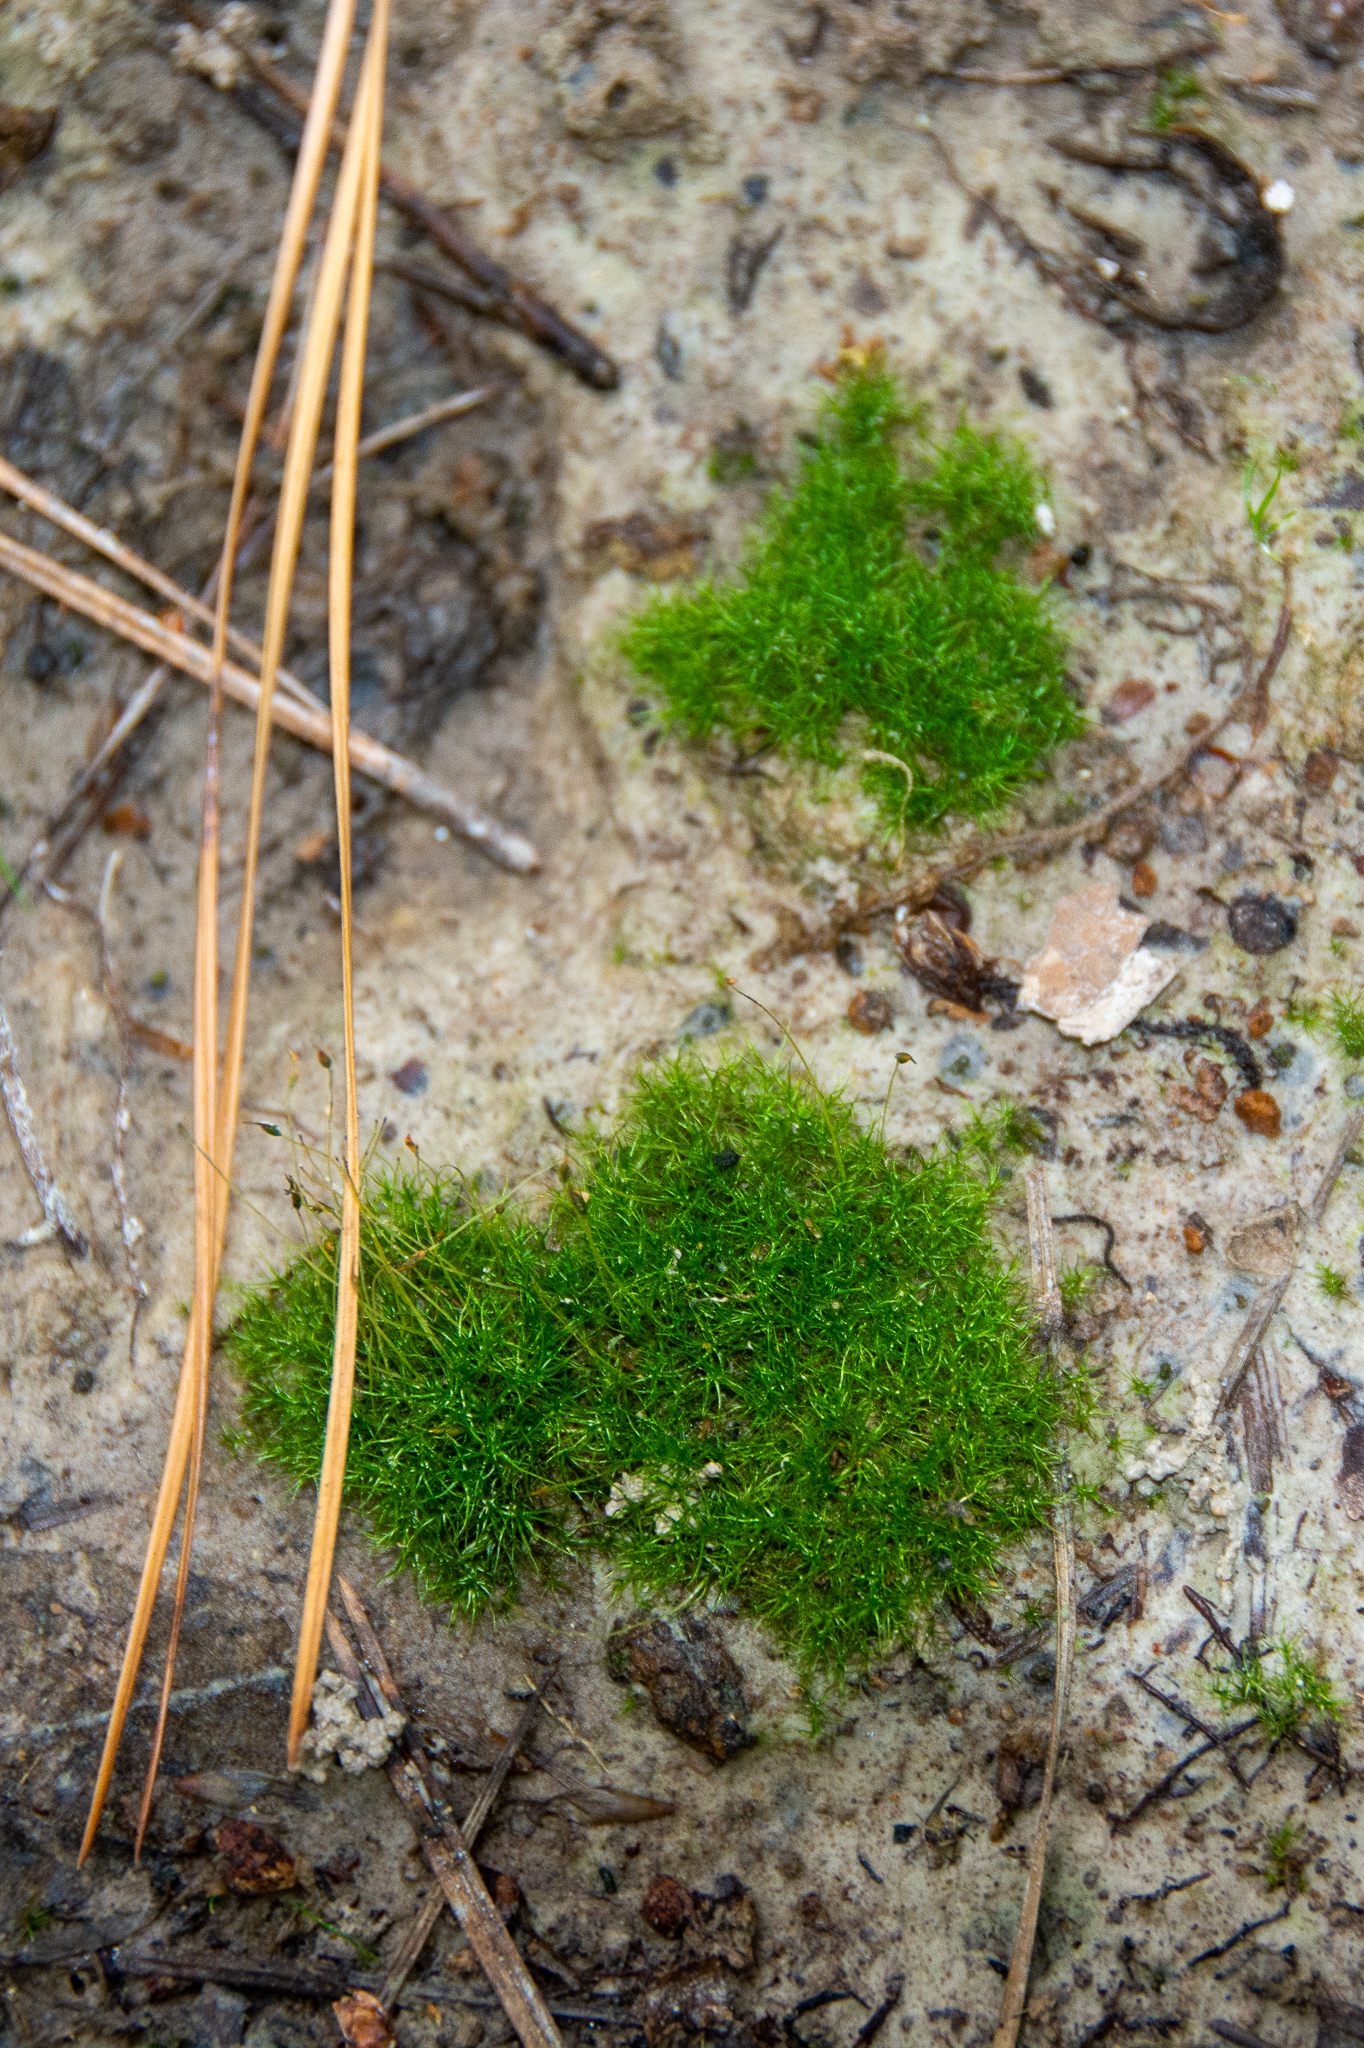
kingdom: Plantae
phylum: Bryophyta
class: Bryopsida
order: Dicranales
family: Ditrichaceae
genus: Ditrichum
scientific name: Ditrichum pallidum
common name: Pale cow-hair moss
